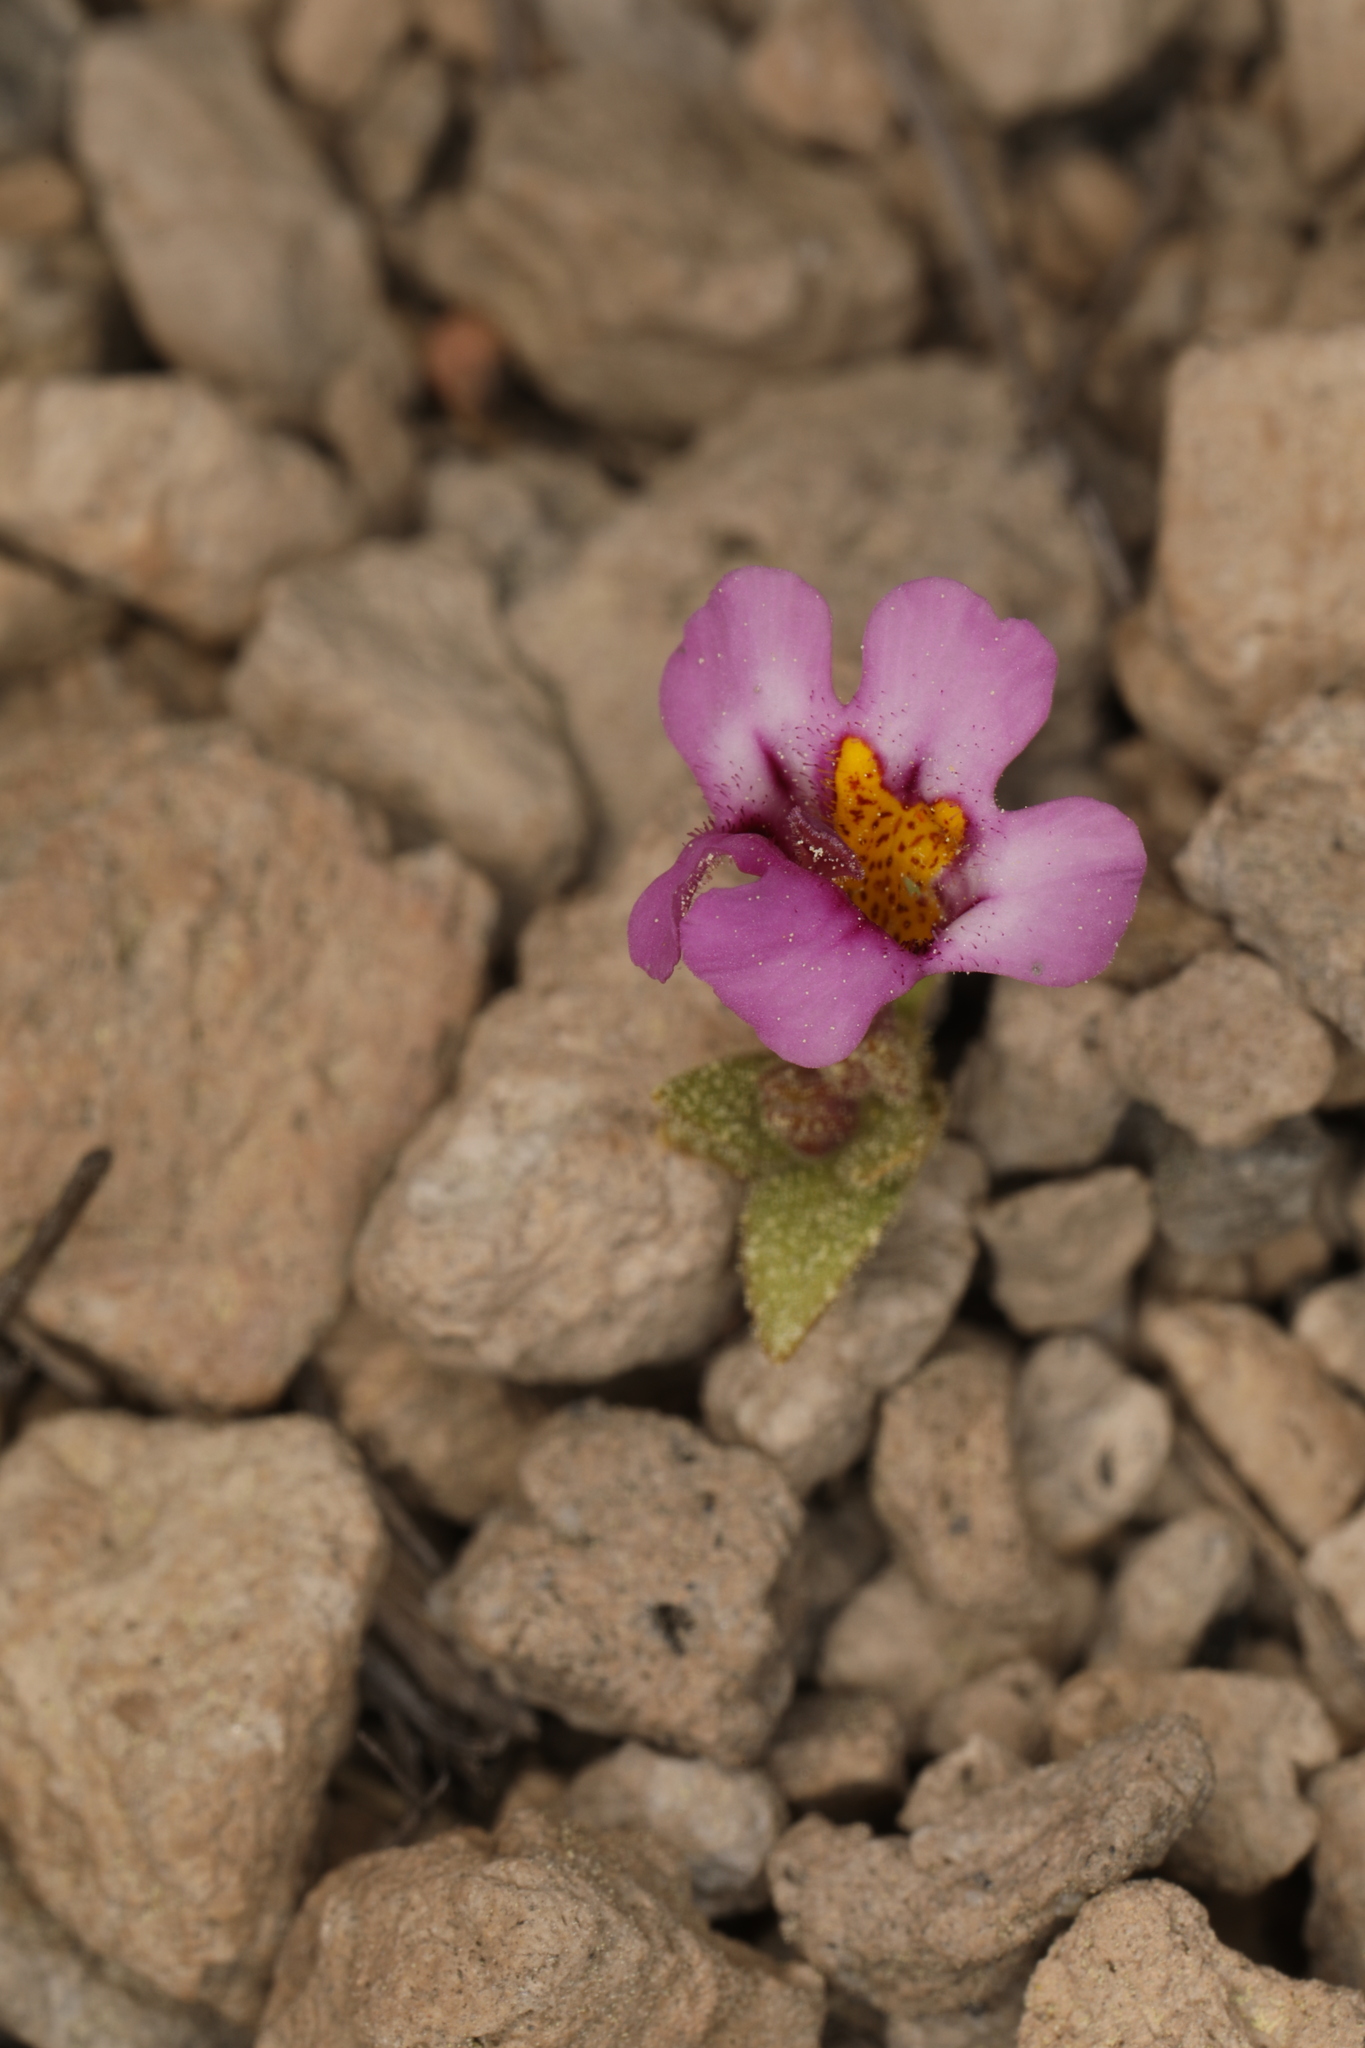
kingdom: Plantae
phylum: Tracheophyta
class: Magnoliopsida
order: Lamiales
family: Phrymaceae
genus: Diplacus
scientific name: Diplacus mephiticus
